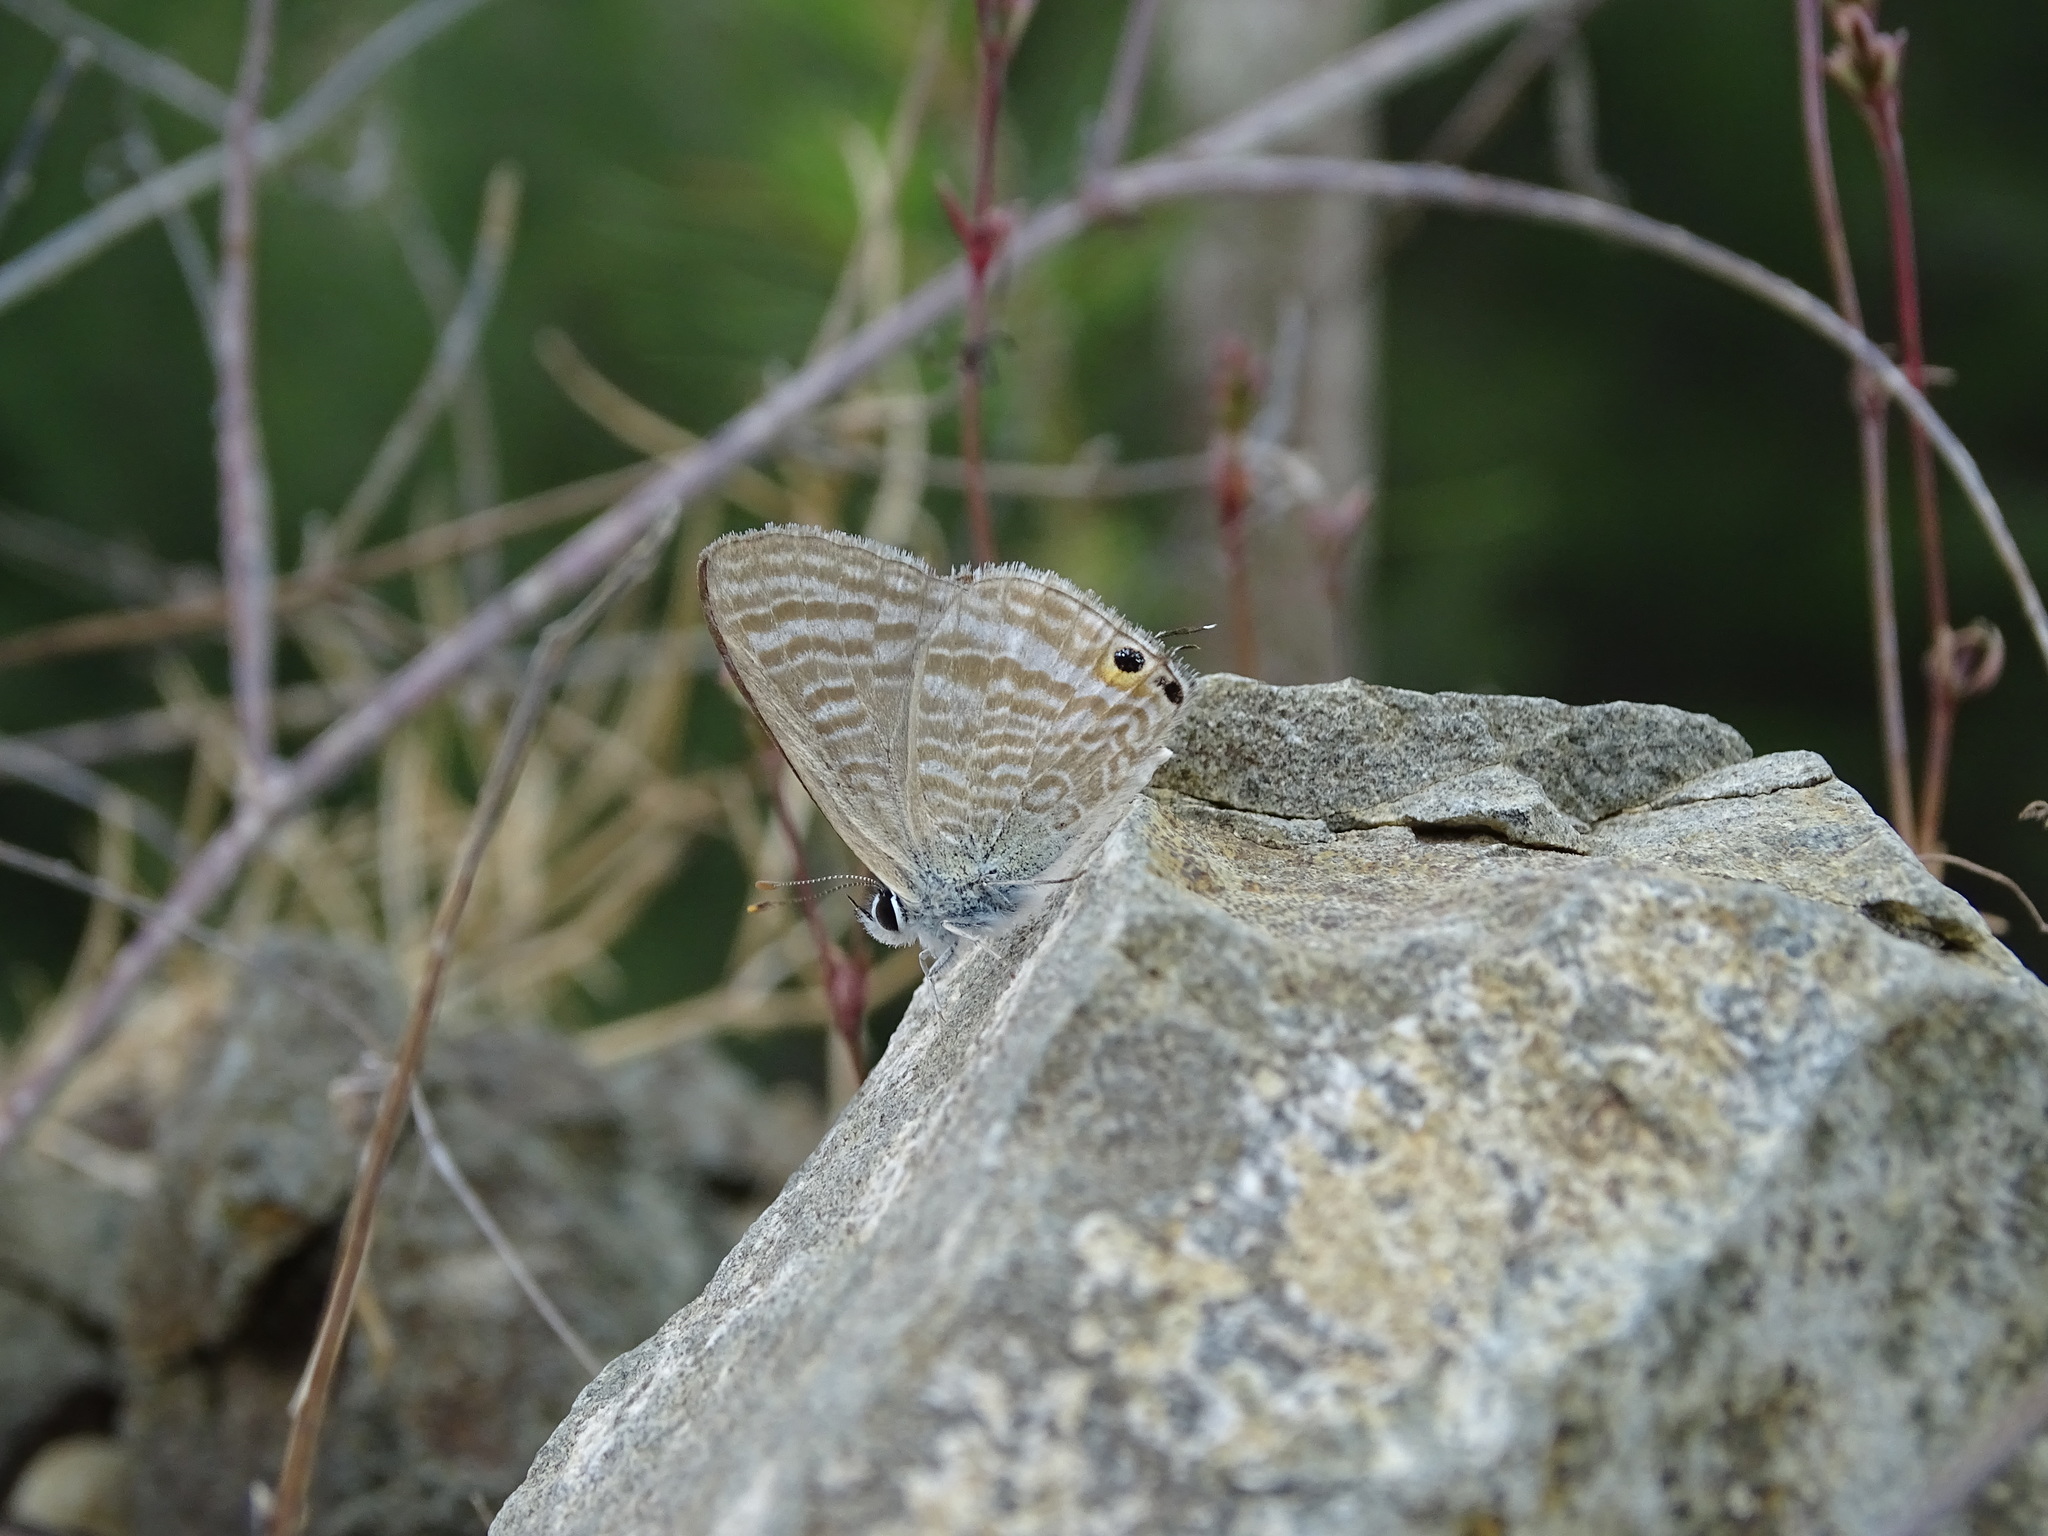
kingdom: Animalia
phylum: Arthropoda
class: Insecta
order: Lepidoptera
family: Lycaenidae
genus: Lampides
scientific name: Lampides boeticus
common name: Long-tailed blue
